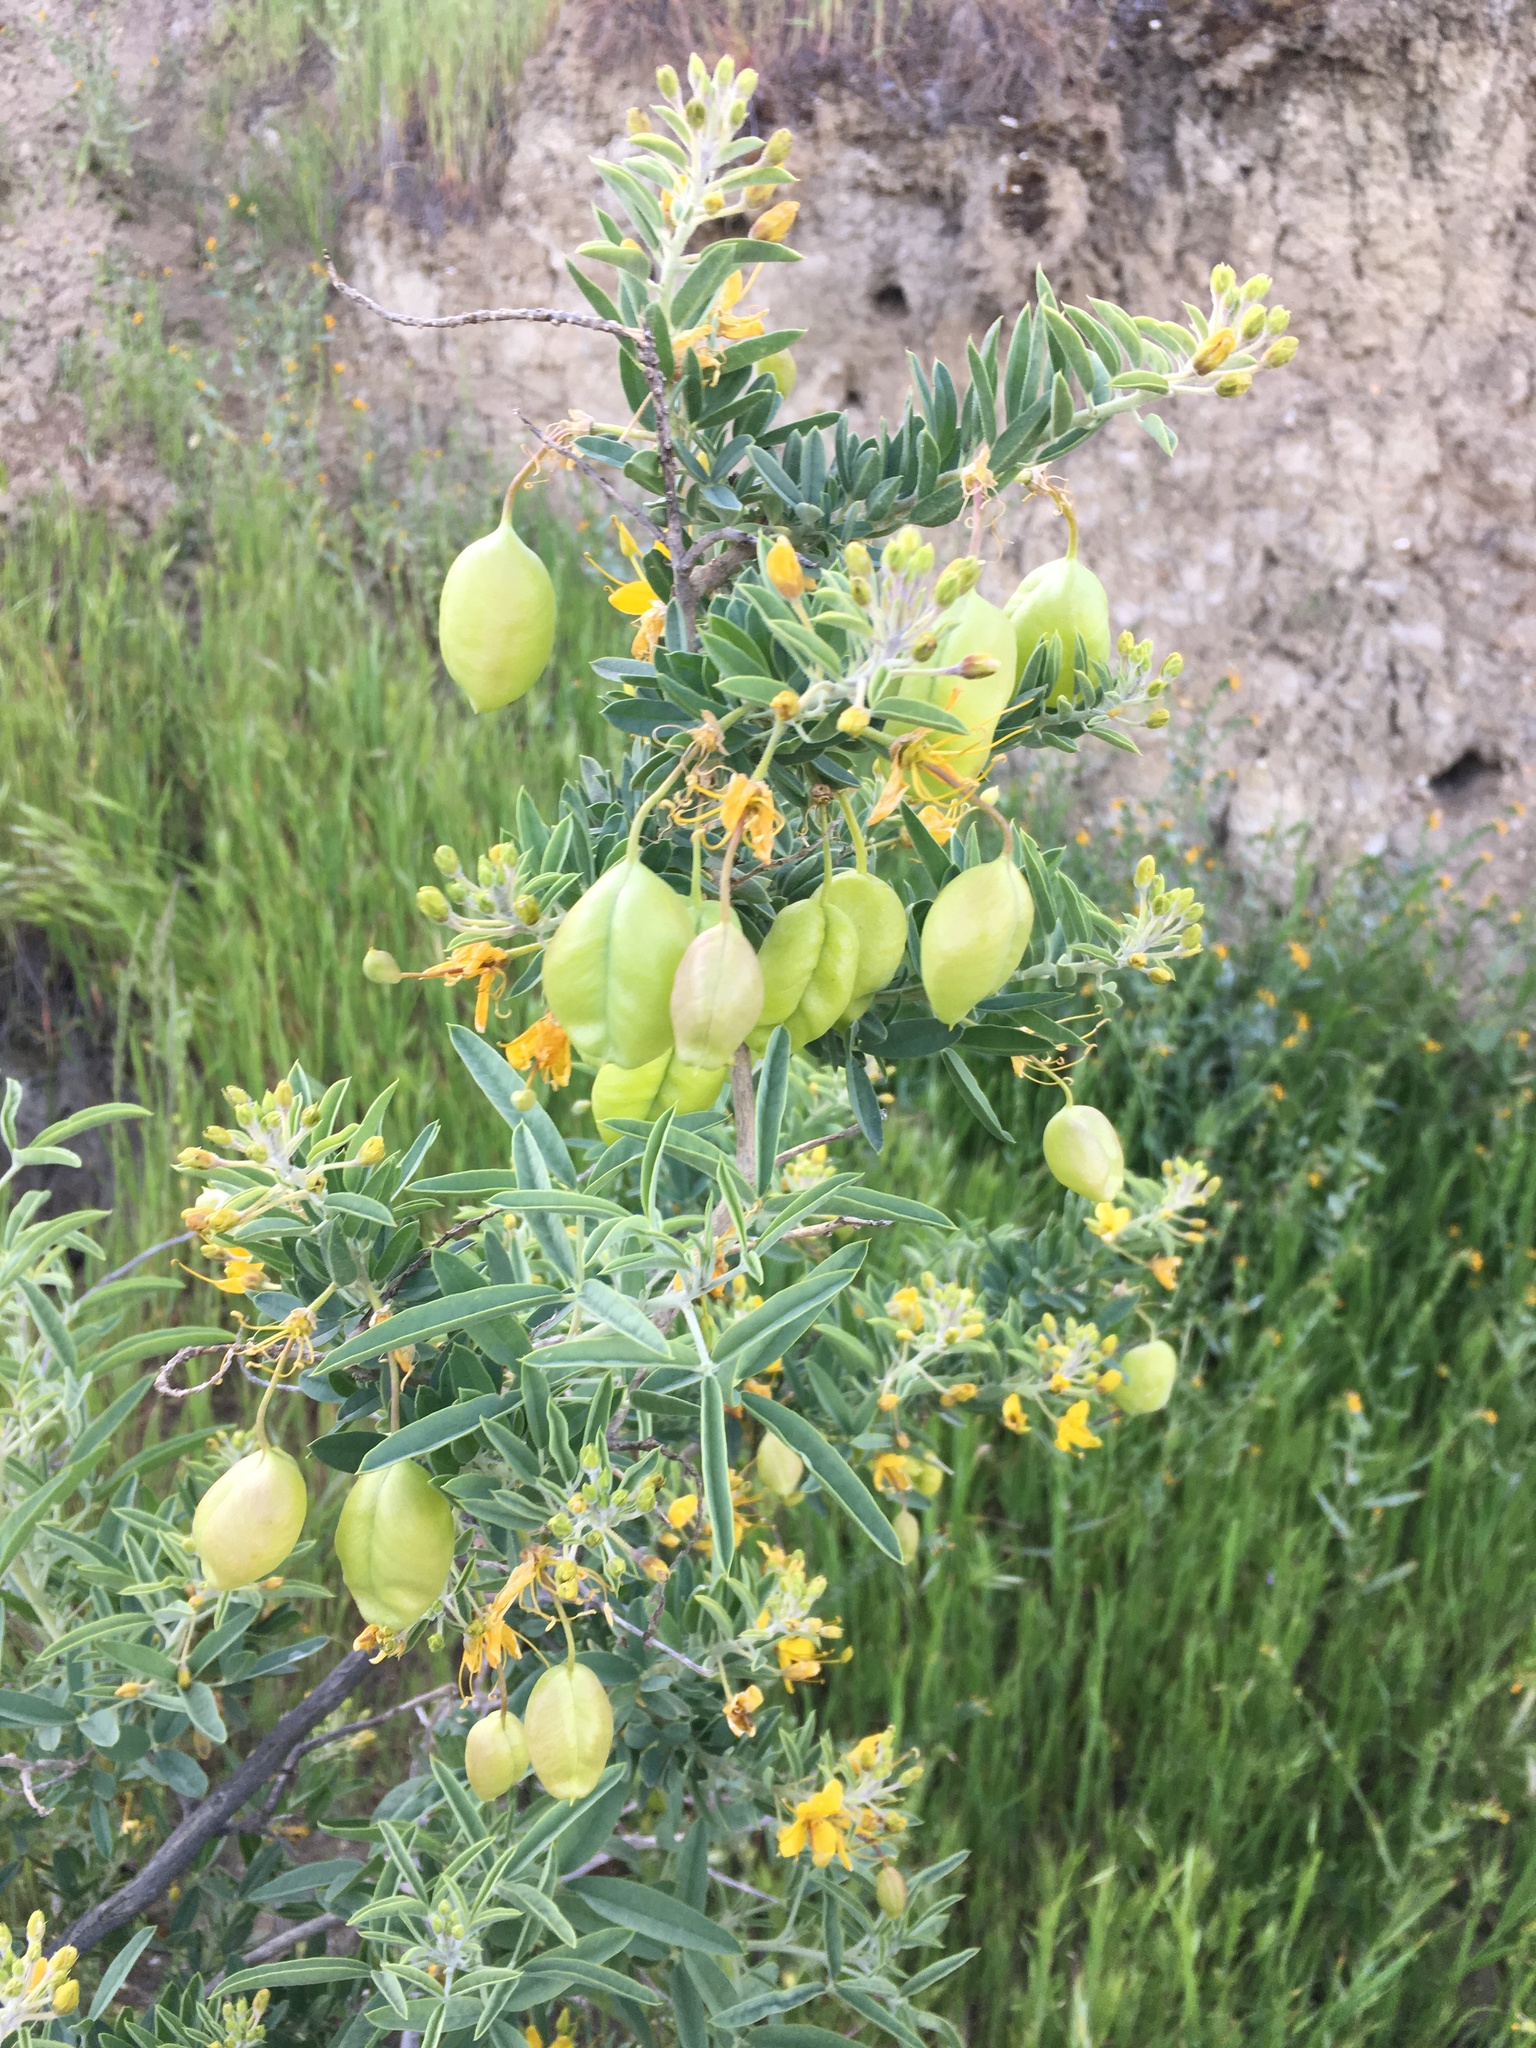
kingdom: Plantae
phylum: Tracheophyta
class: Magnoliopsida
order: Brassicales
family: Cleomaceae
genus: Cleomella
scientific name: Cleomella arborea
